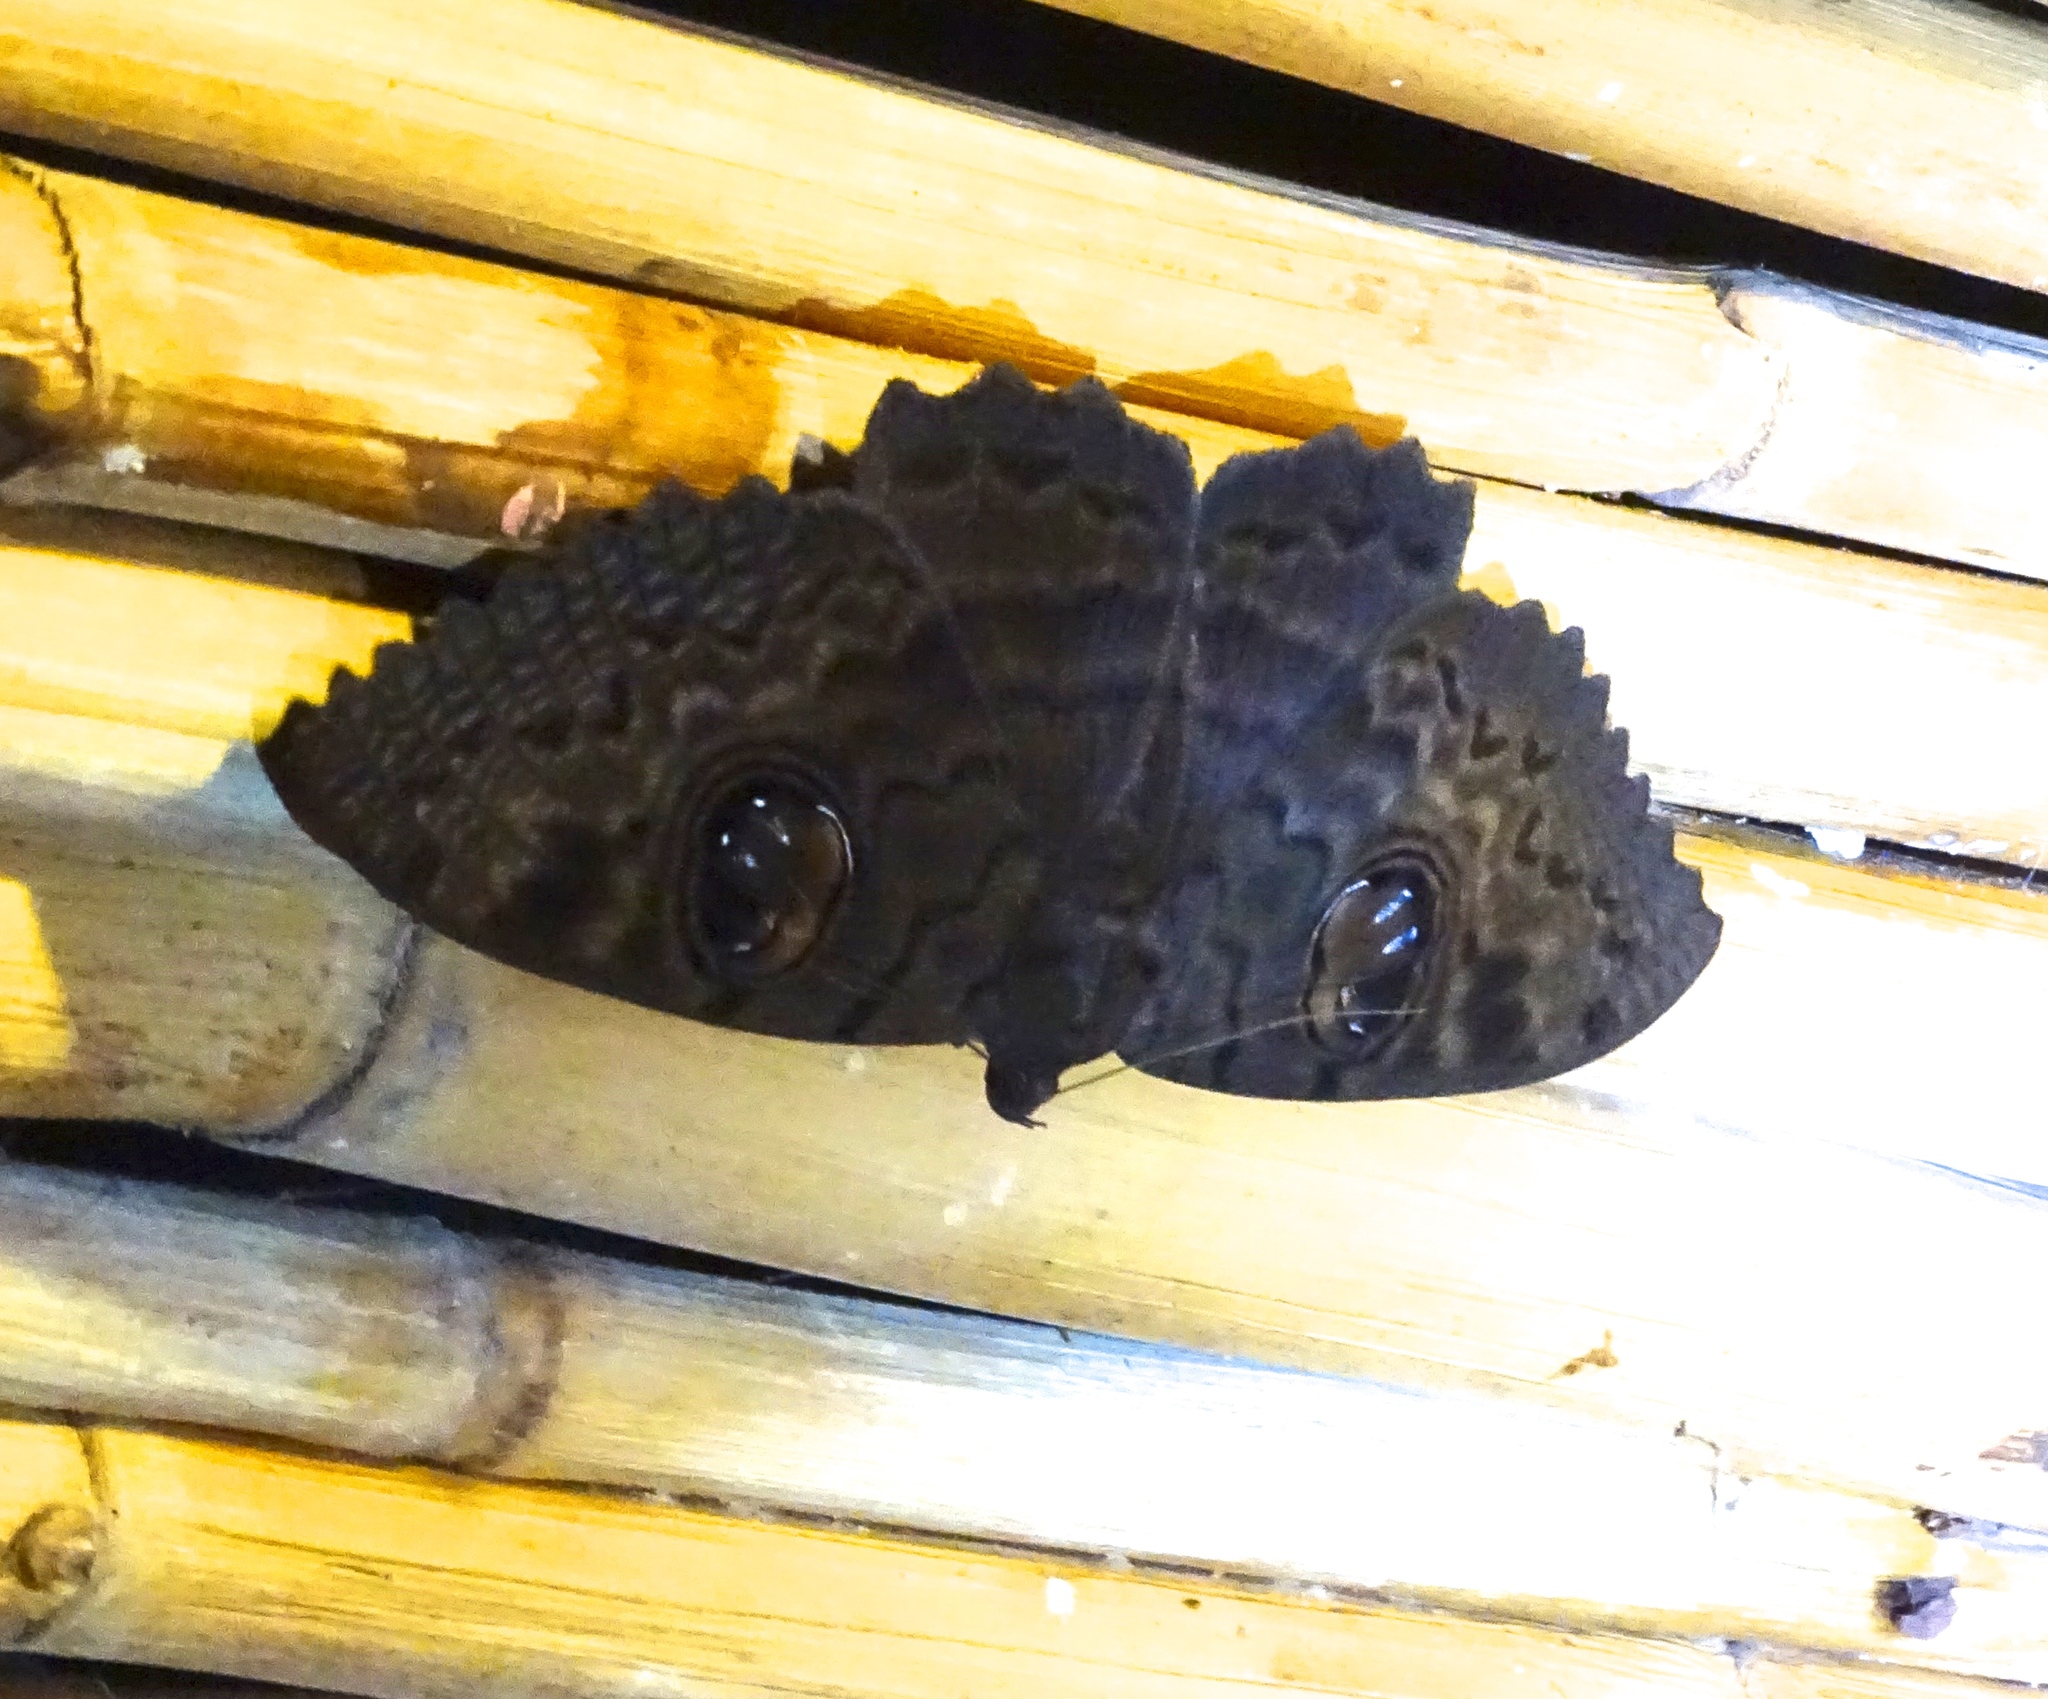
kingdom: Animalia
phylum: Arthropoda
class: Insecta
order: Lepidoptera
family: Erebidae
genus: Erebus
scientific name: Erebus walkeri
